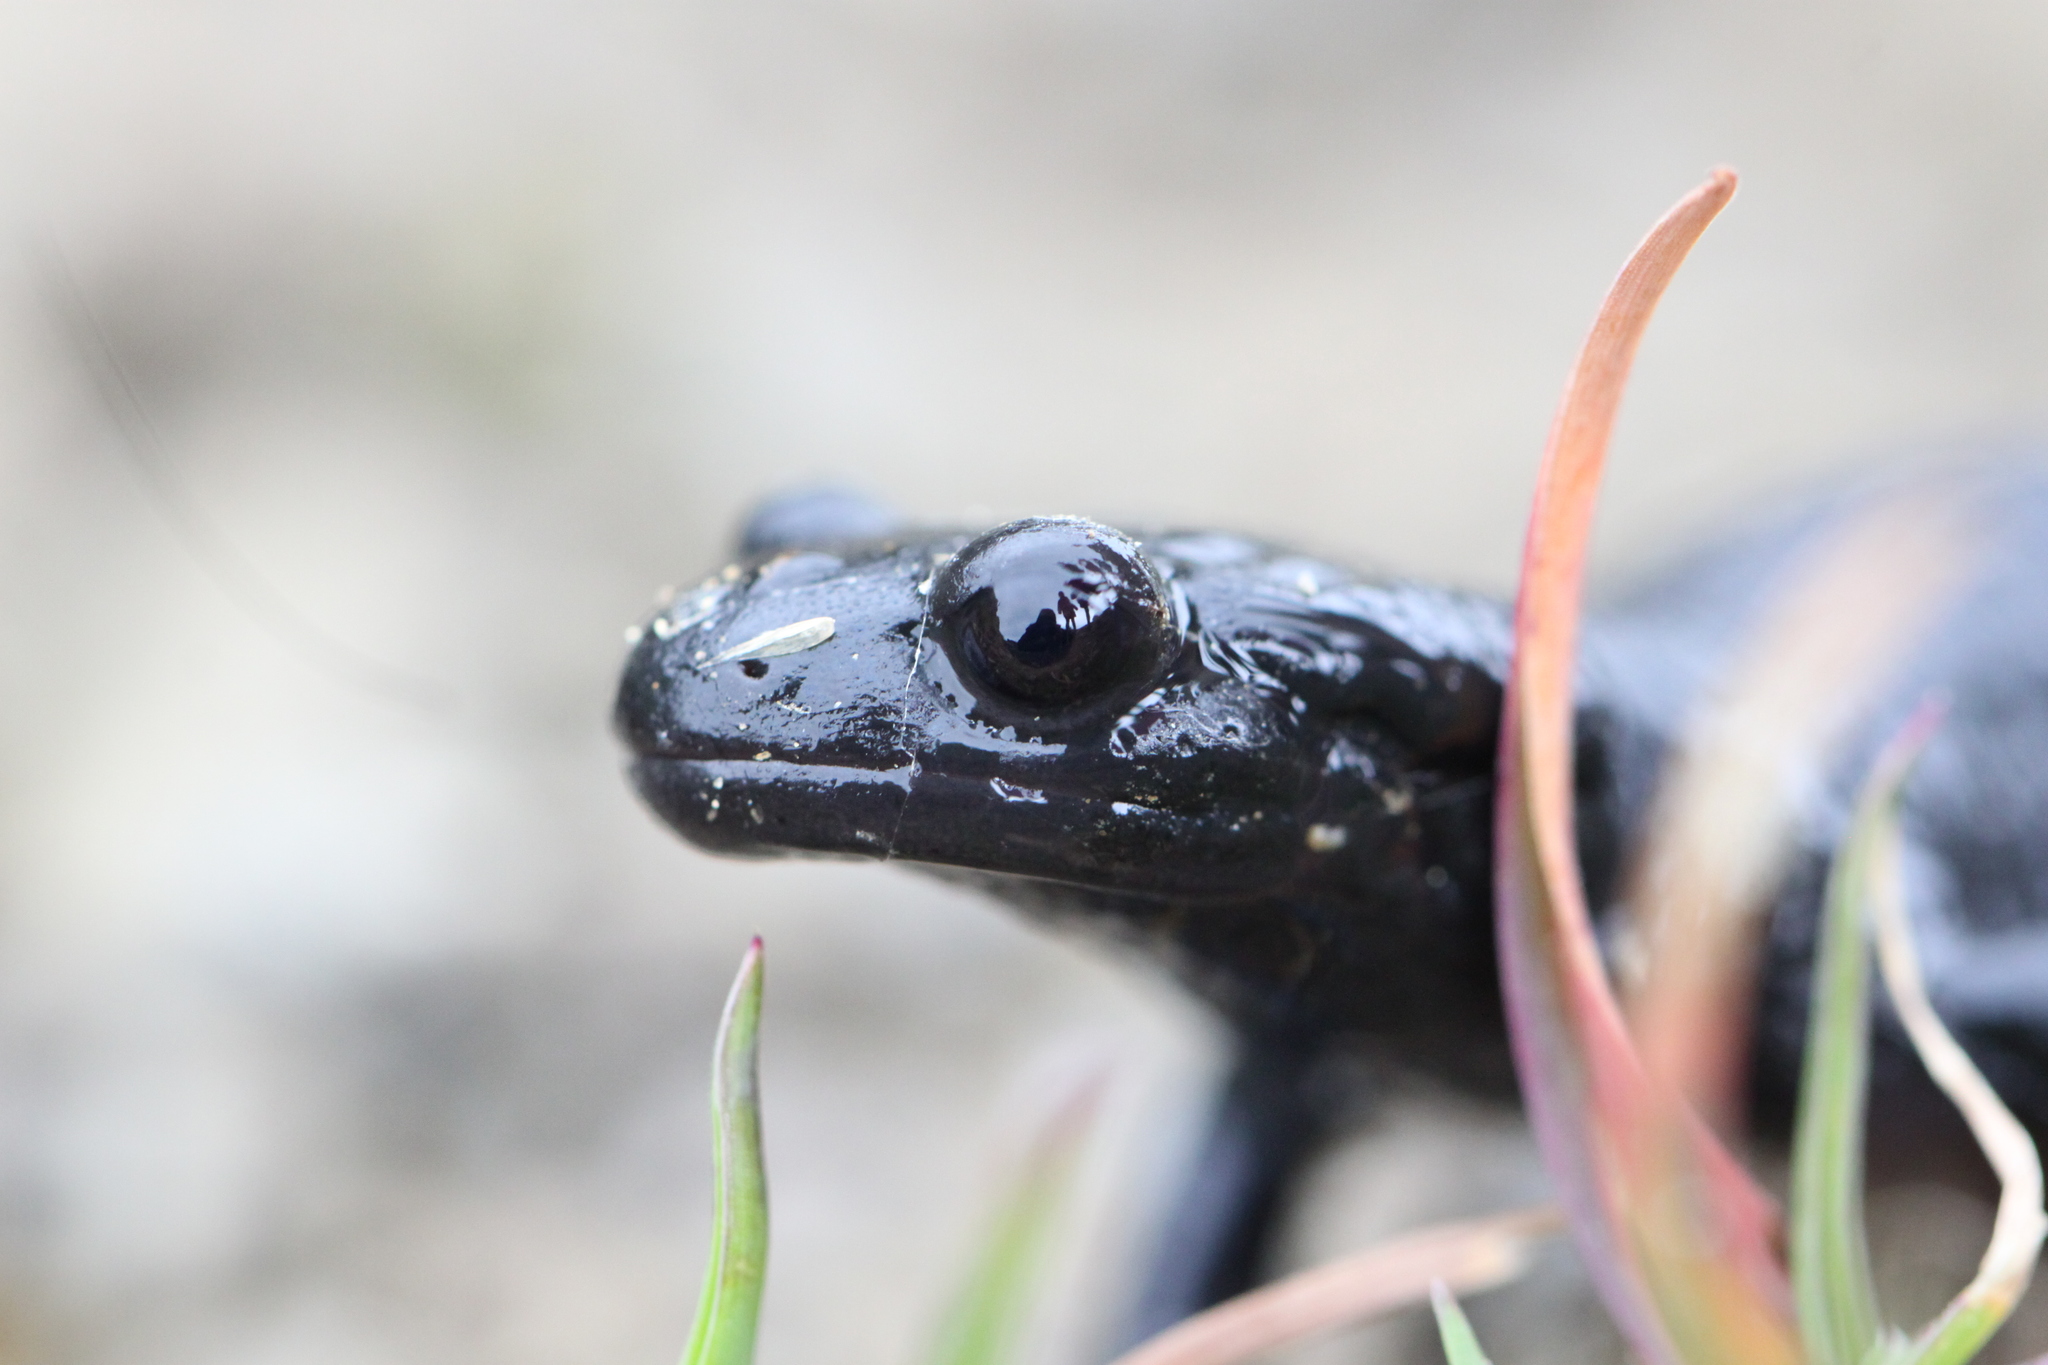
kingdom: Animalia
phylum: Chordata
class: Amphibia
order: Caudata
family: Salamandridae
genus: Salamandra
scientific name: Salamandra atra
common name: Alpine salamander
